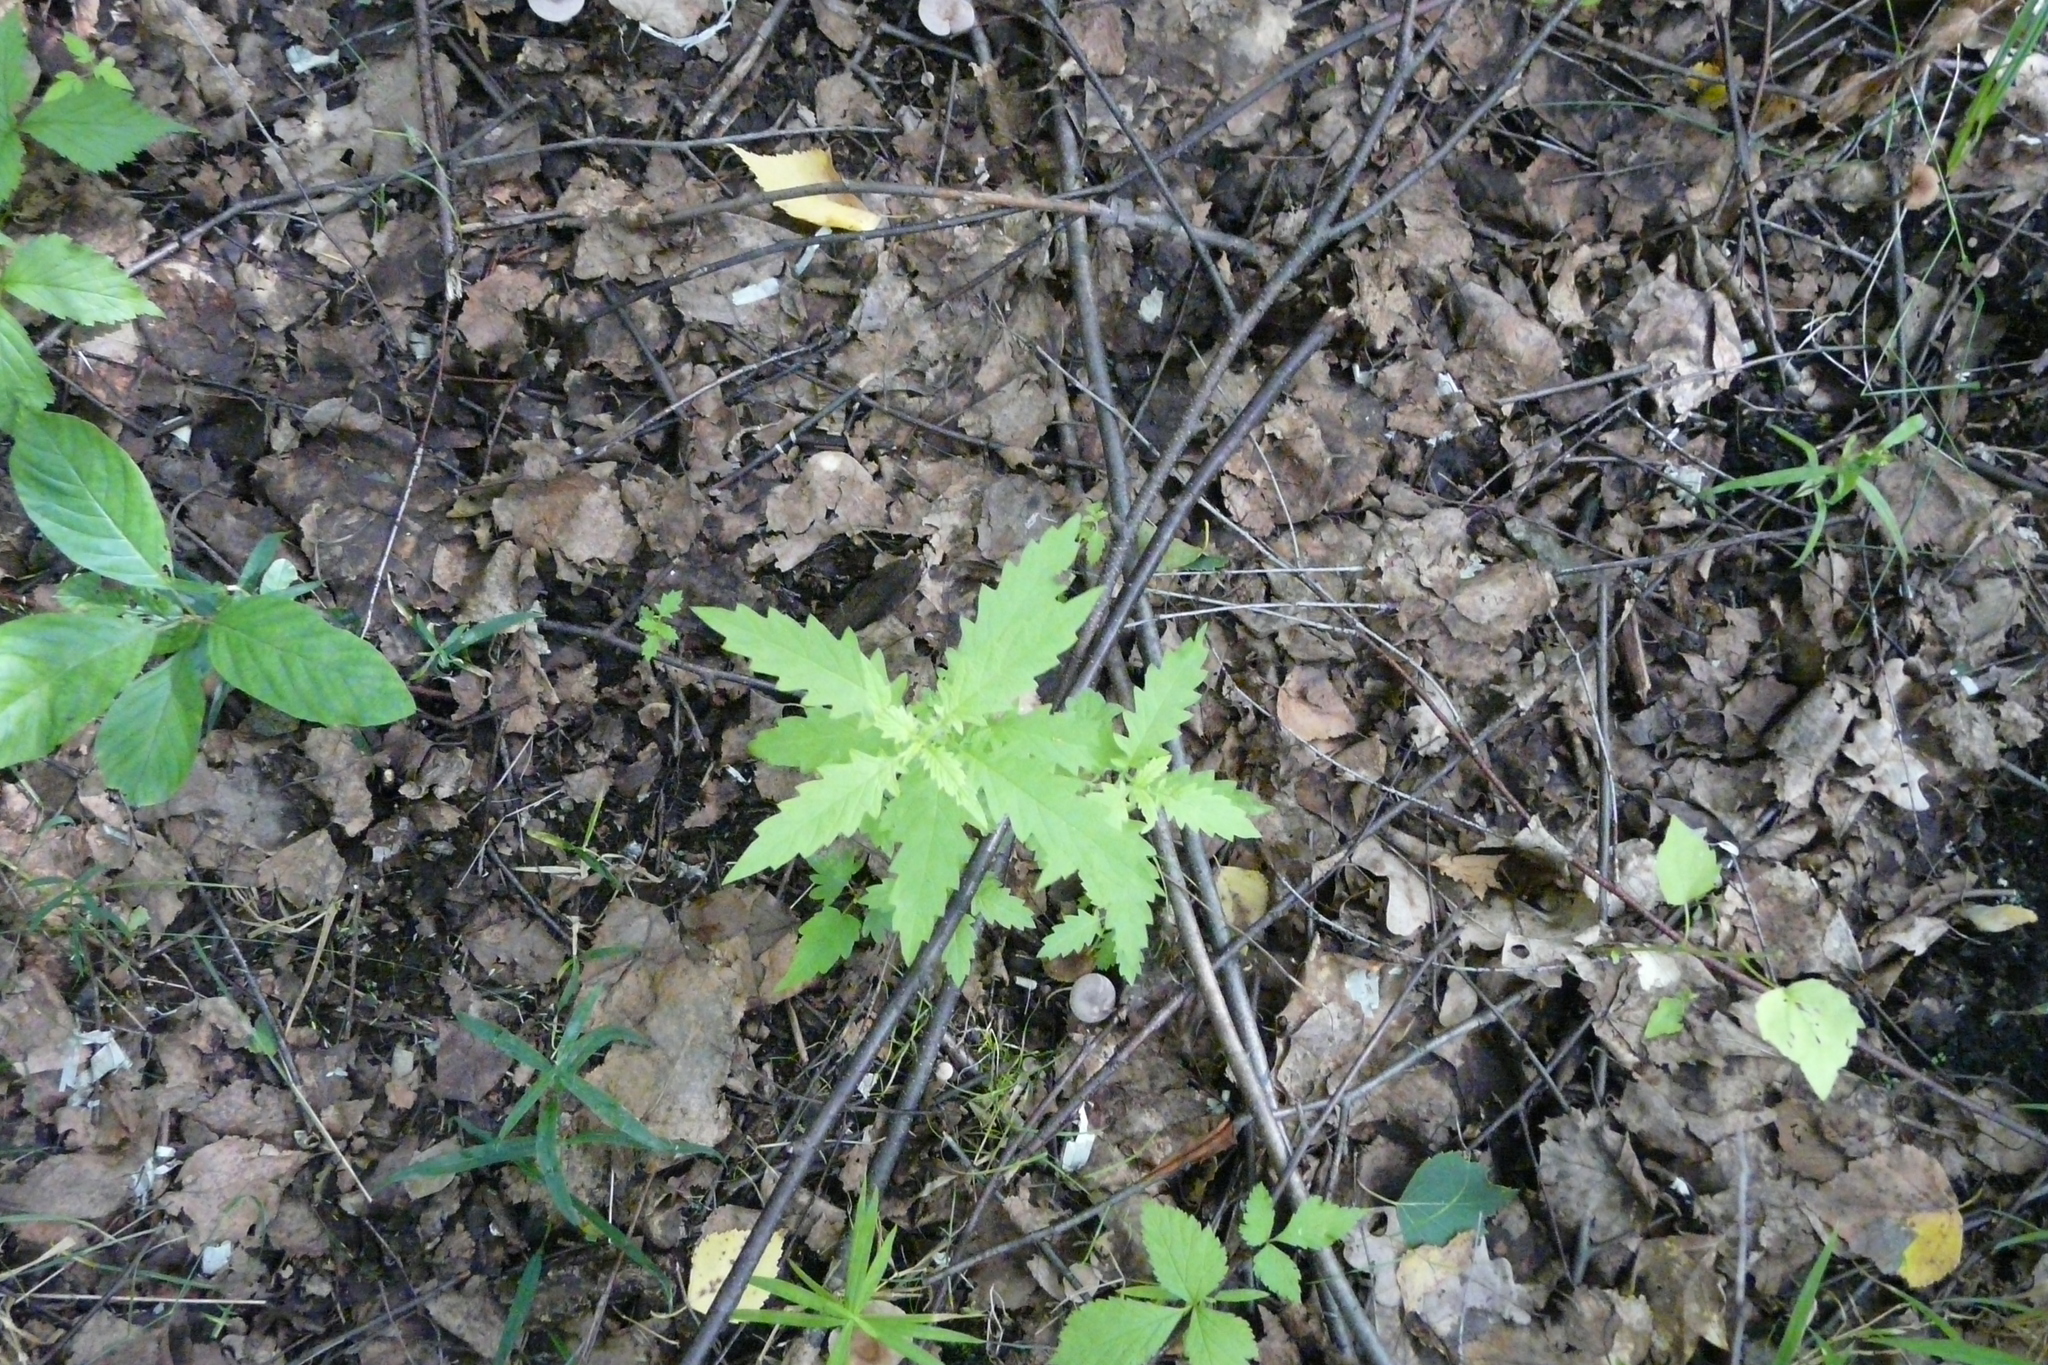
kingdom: Plantae
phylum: Tracheophyta
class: Magnoliopsida
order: Lamiales
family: Lamiaceae
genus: Lycopus
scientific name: Lycopus europaeus
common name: European bugleweed
